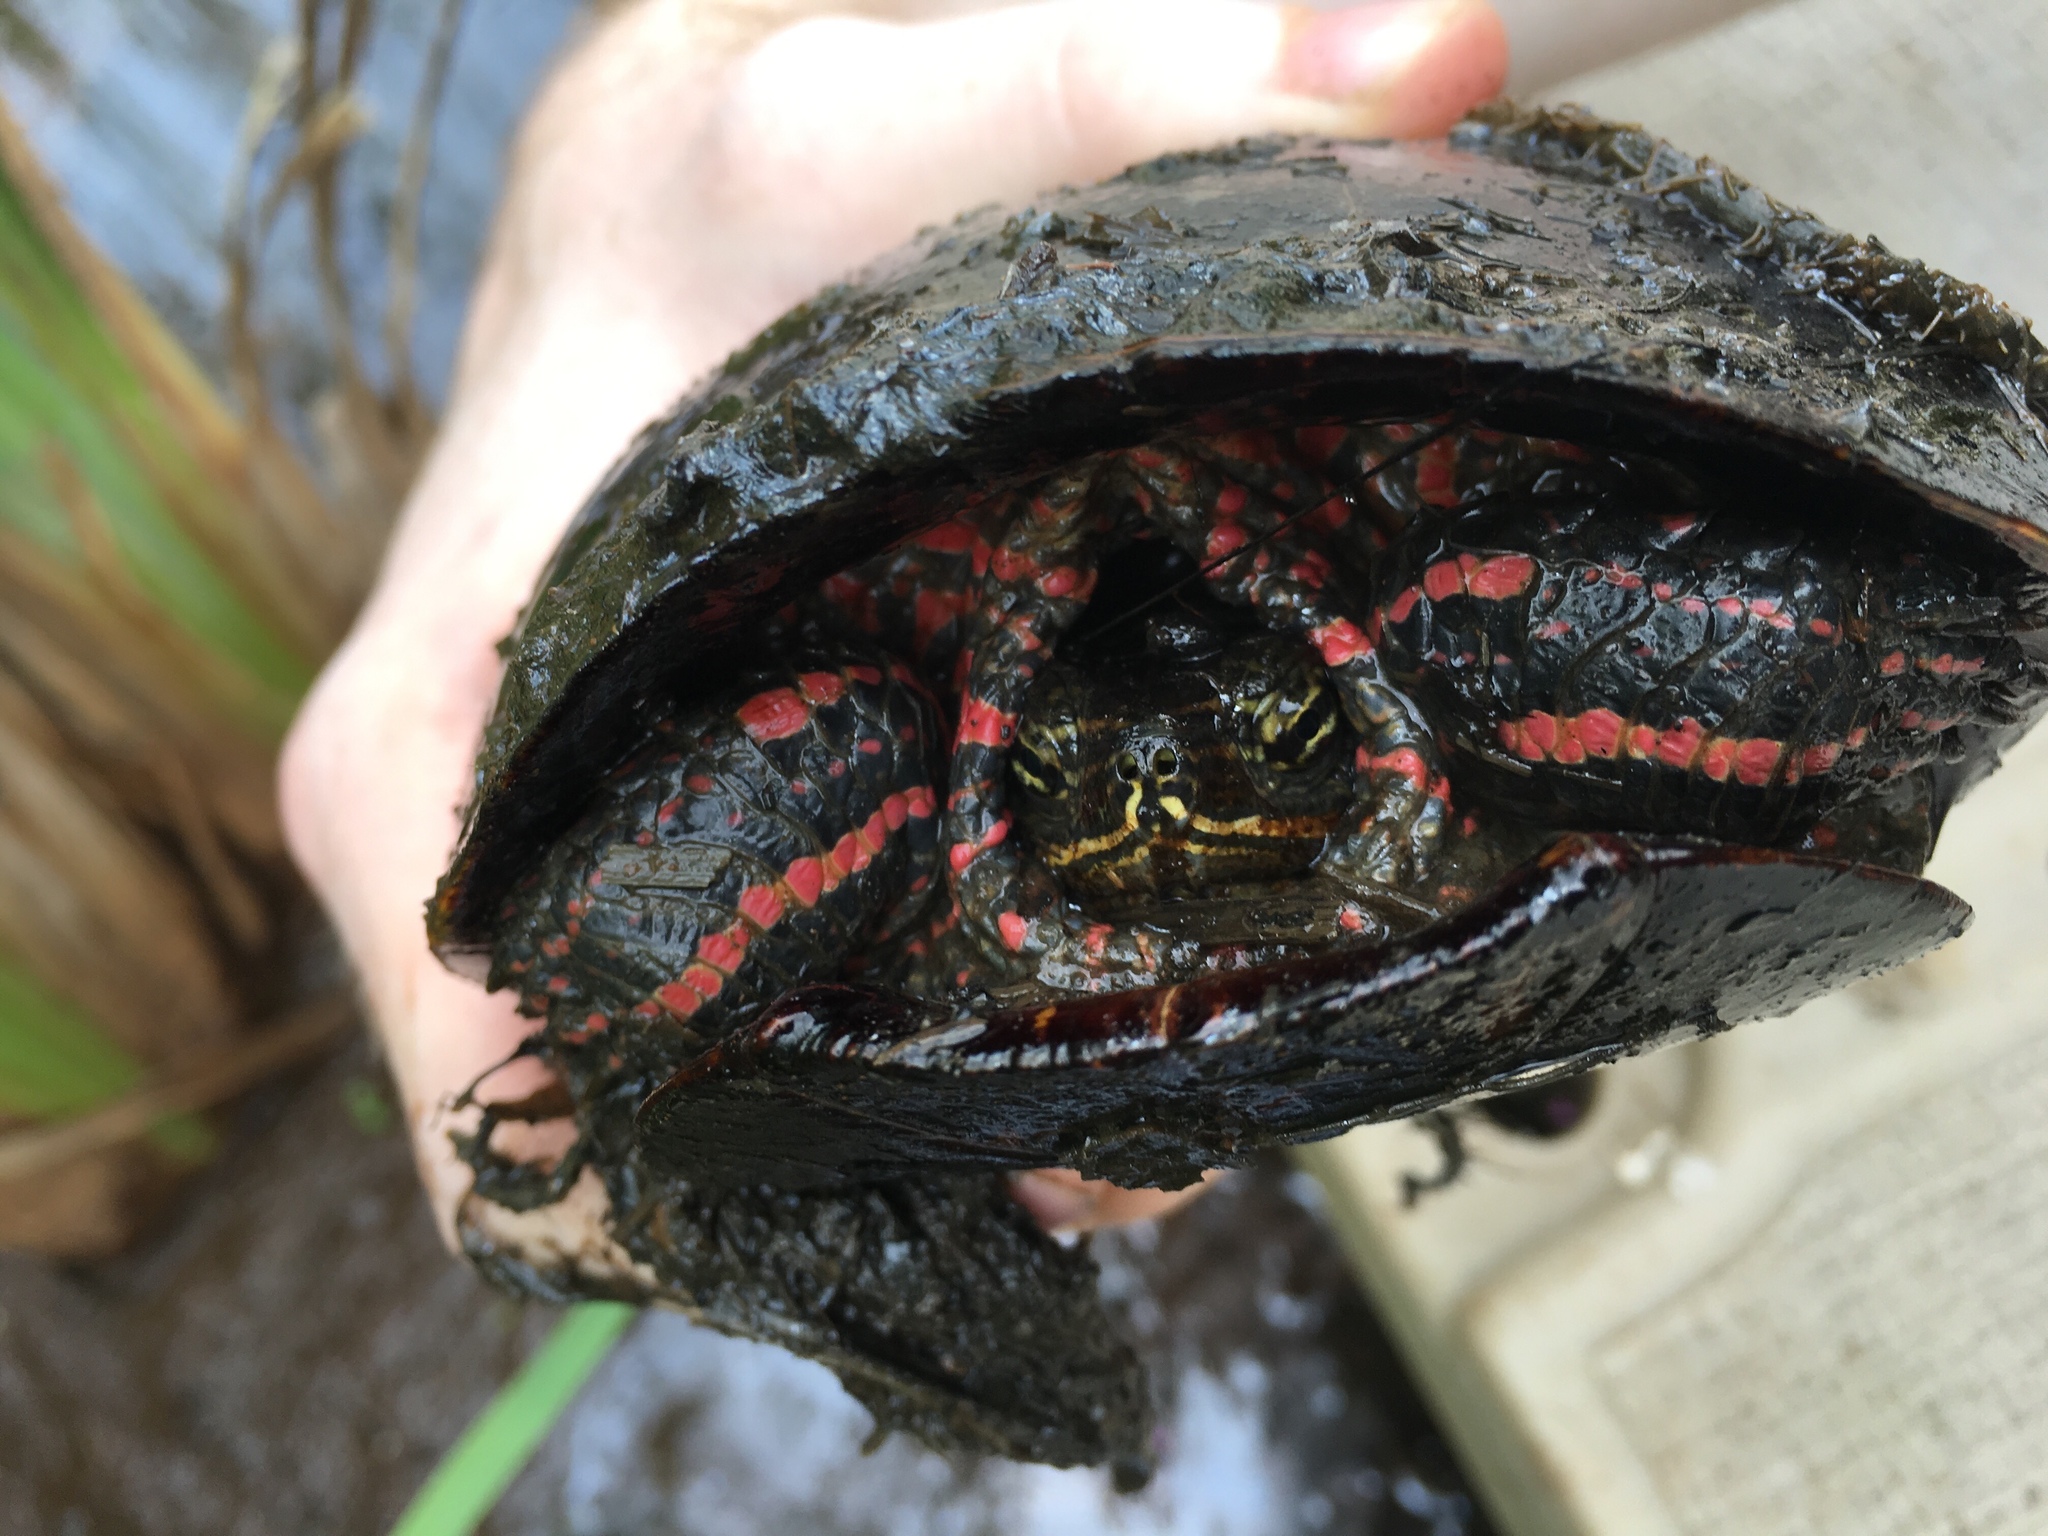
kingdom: Animalia
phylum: Chordata
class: Testudines
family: Emydidae
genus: Chrysemys
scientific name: Chrysemys picta
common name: Painted turtle
